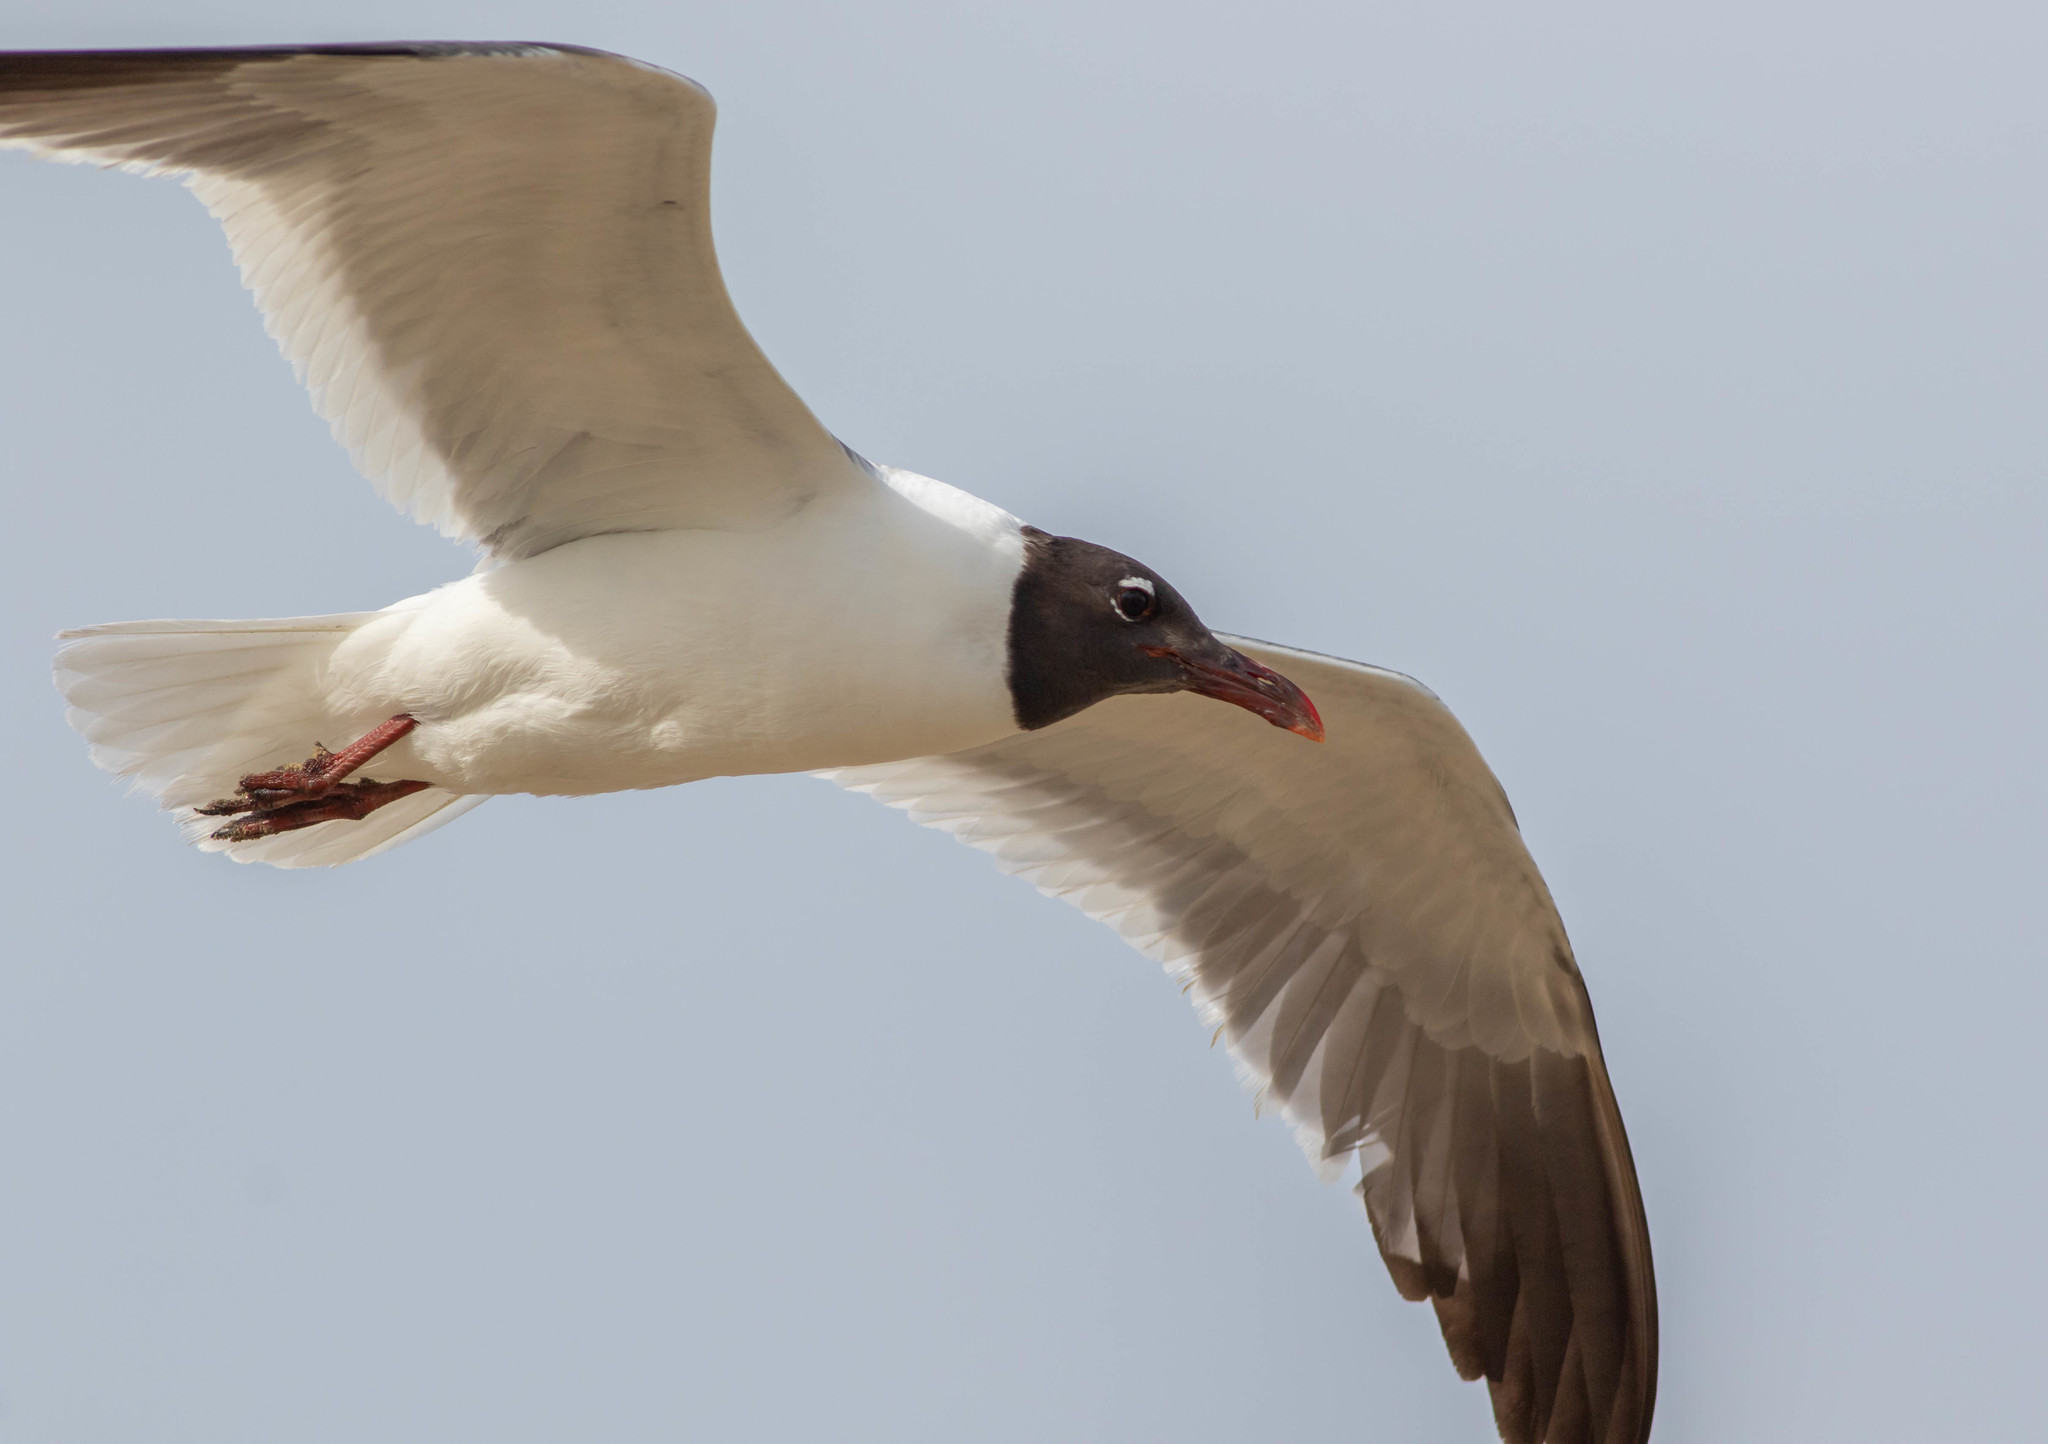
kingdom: Animalia
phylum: Chordata
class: Aves
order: Charadriiformes
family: Laridae
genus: Leucophaeus
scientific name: Leucophaeus atricilla
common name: Laughing gull
